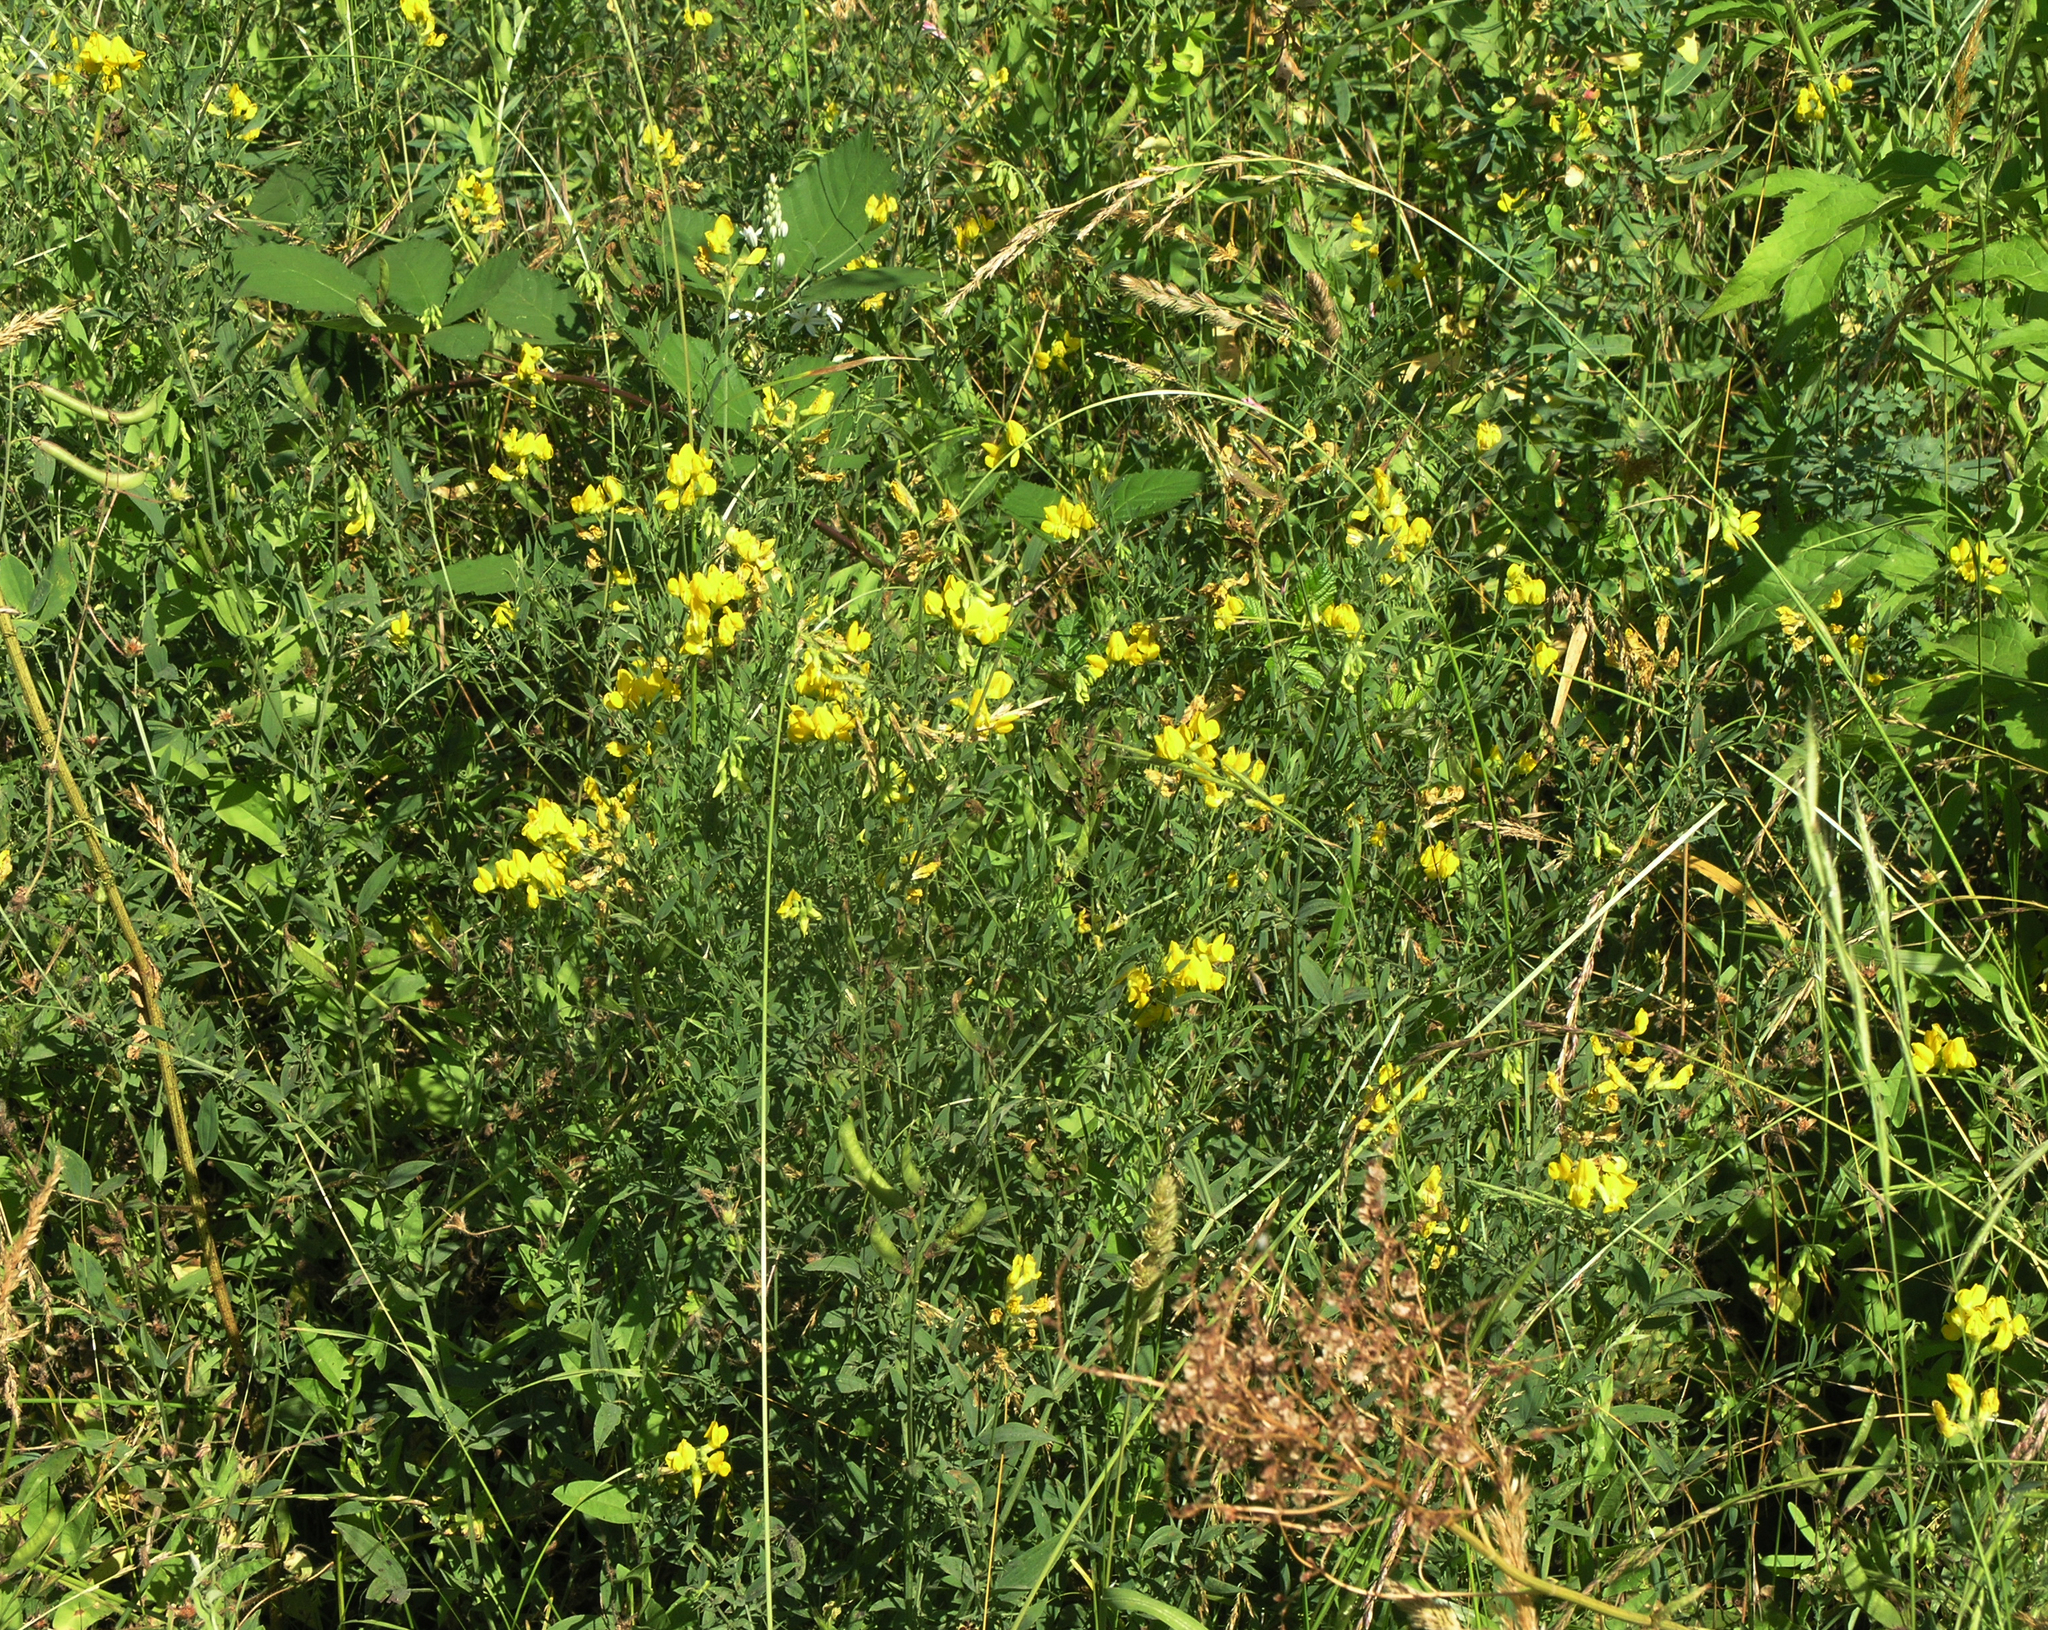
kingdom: Plantae
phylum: Tracheophyta
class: Magnoliopsida
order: Fabales
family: Fabaceae
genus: Lathyrus
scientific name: Lathyrus pratensis
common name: Meadow vetchling
